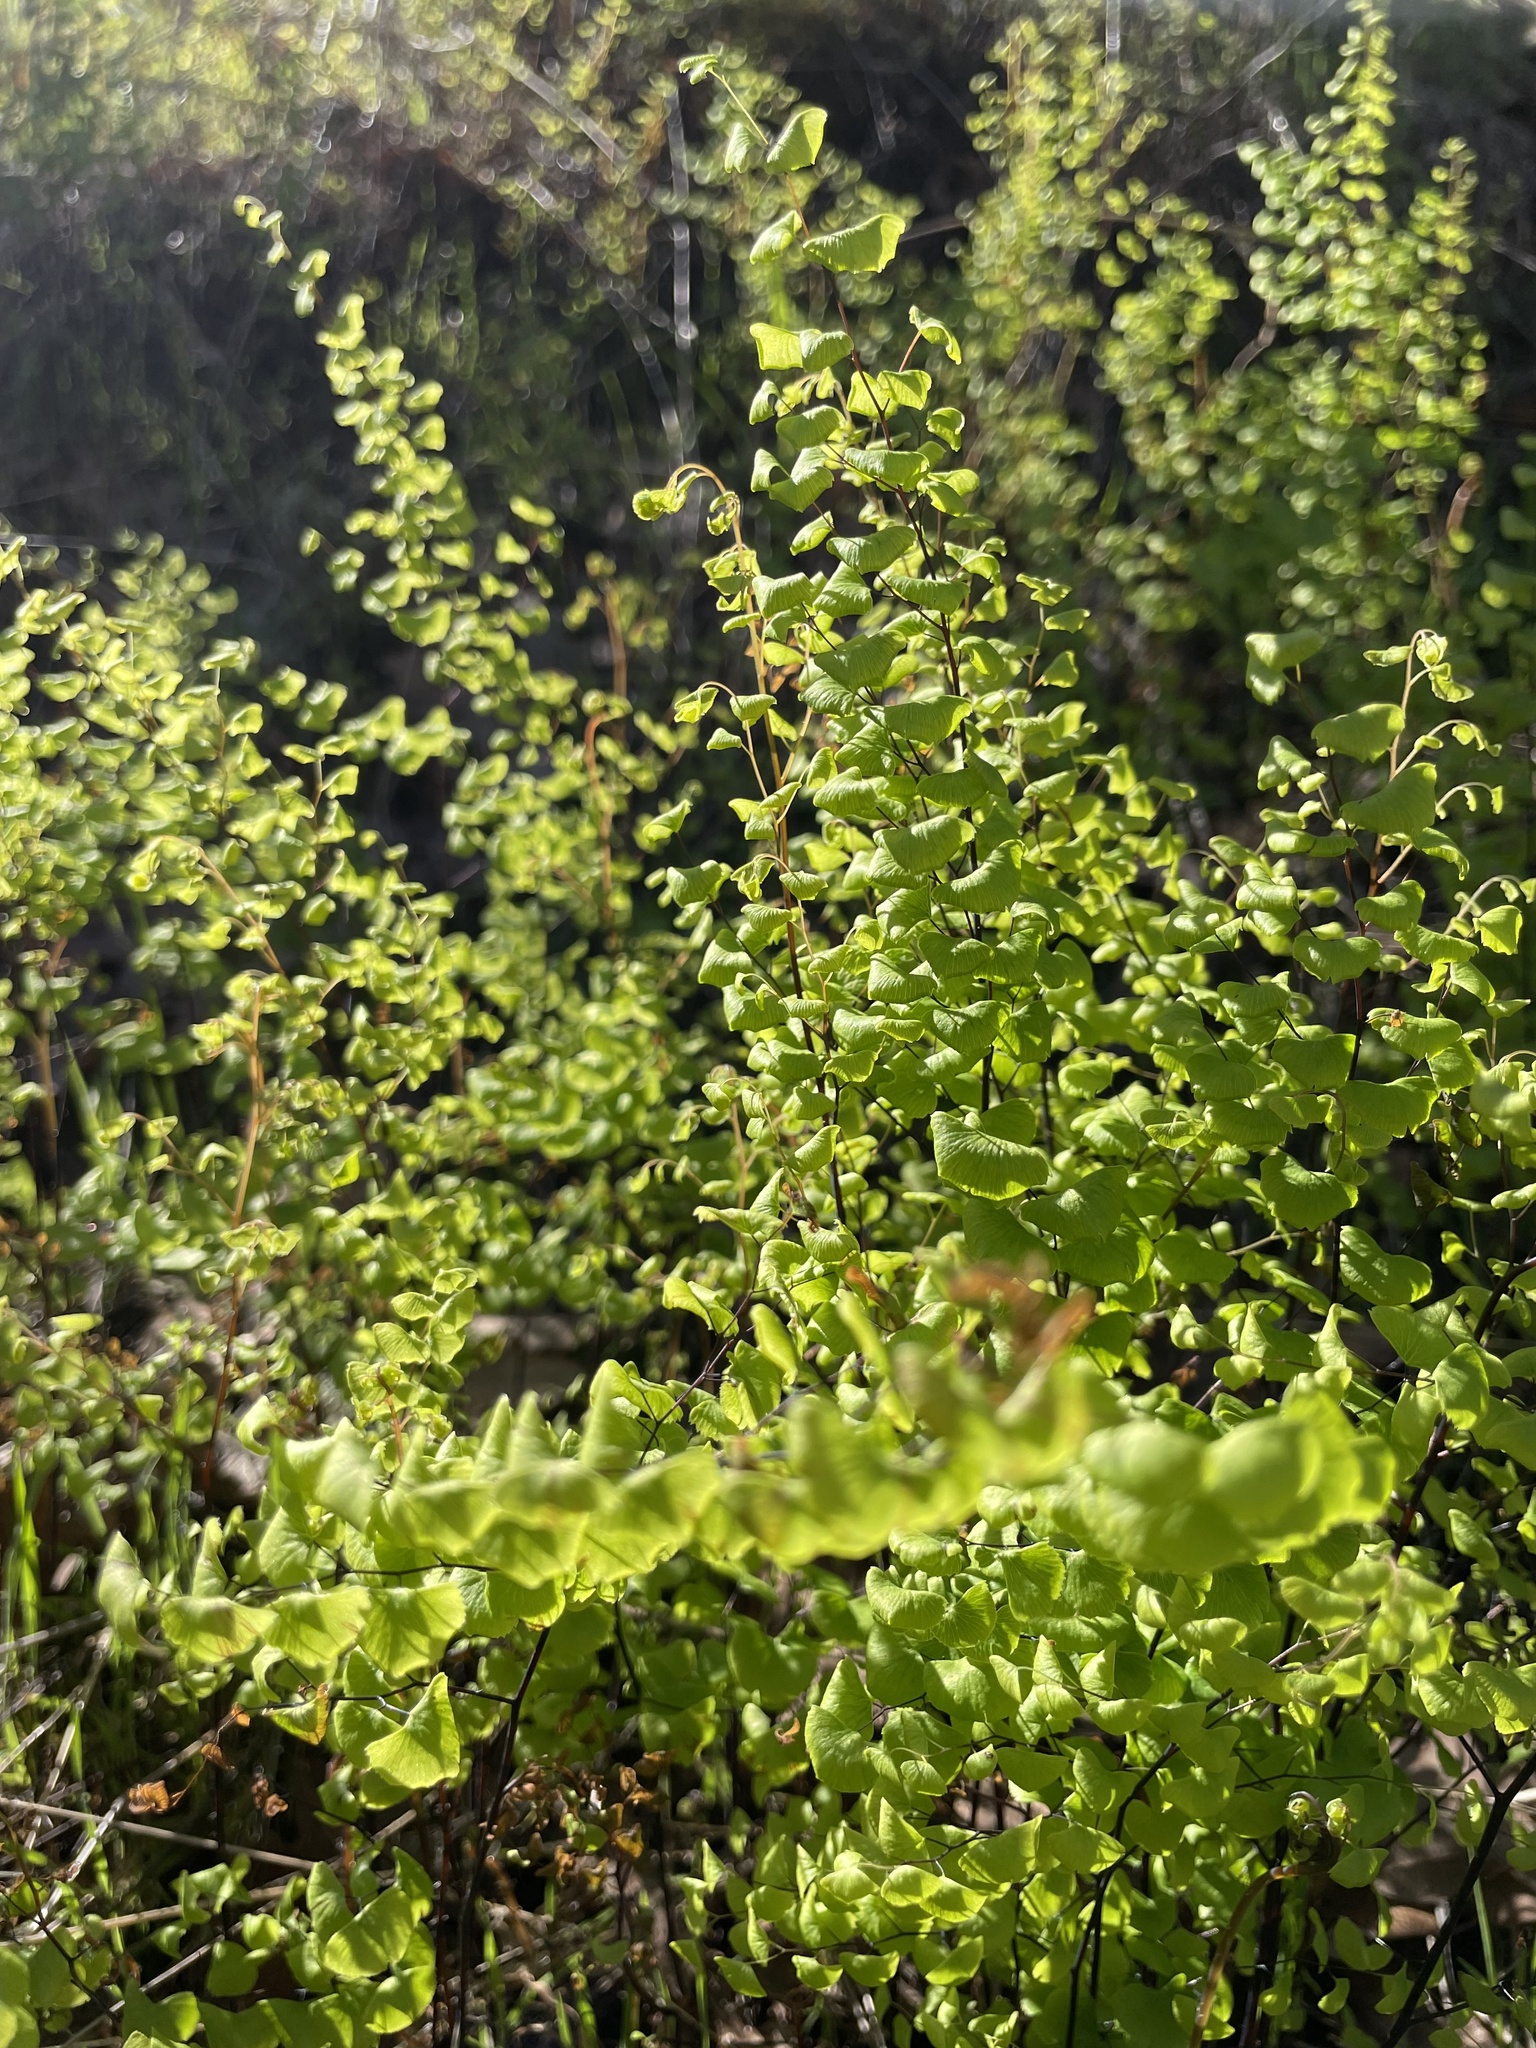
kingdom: Plantae
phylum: Tracheophyta
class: Polypodiopsida
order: Polypodiales
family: Pteridaceae
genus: Adiantum
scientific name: Adiantum jordanii
